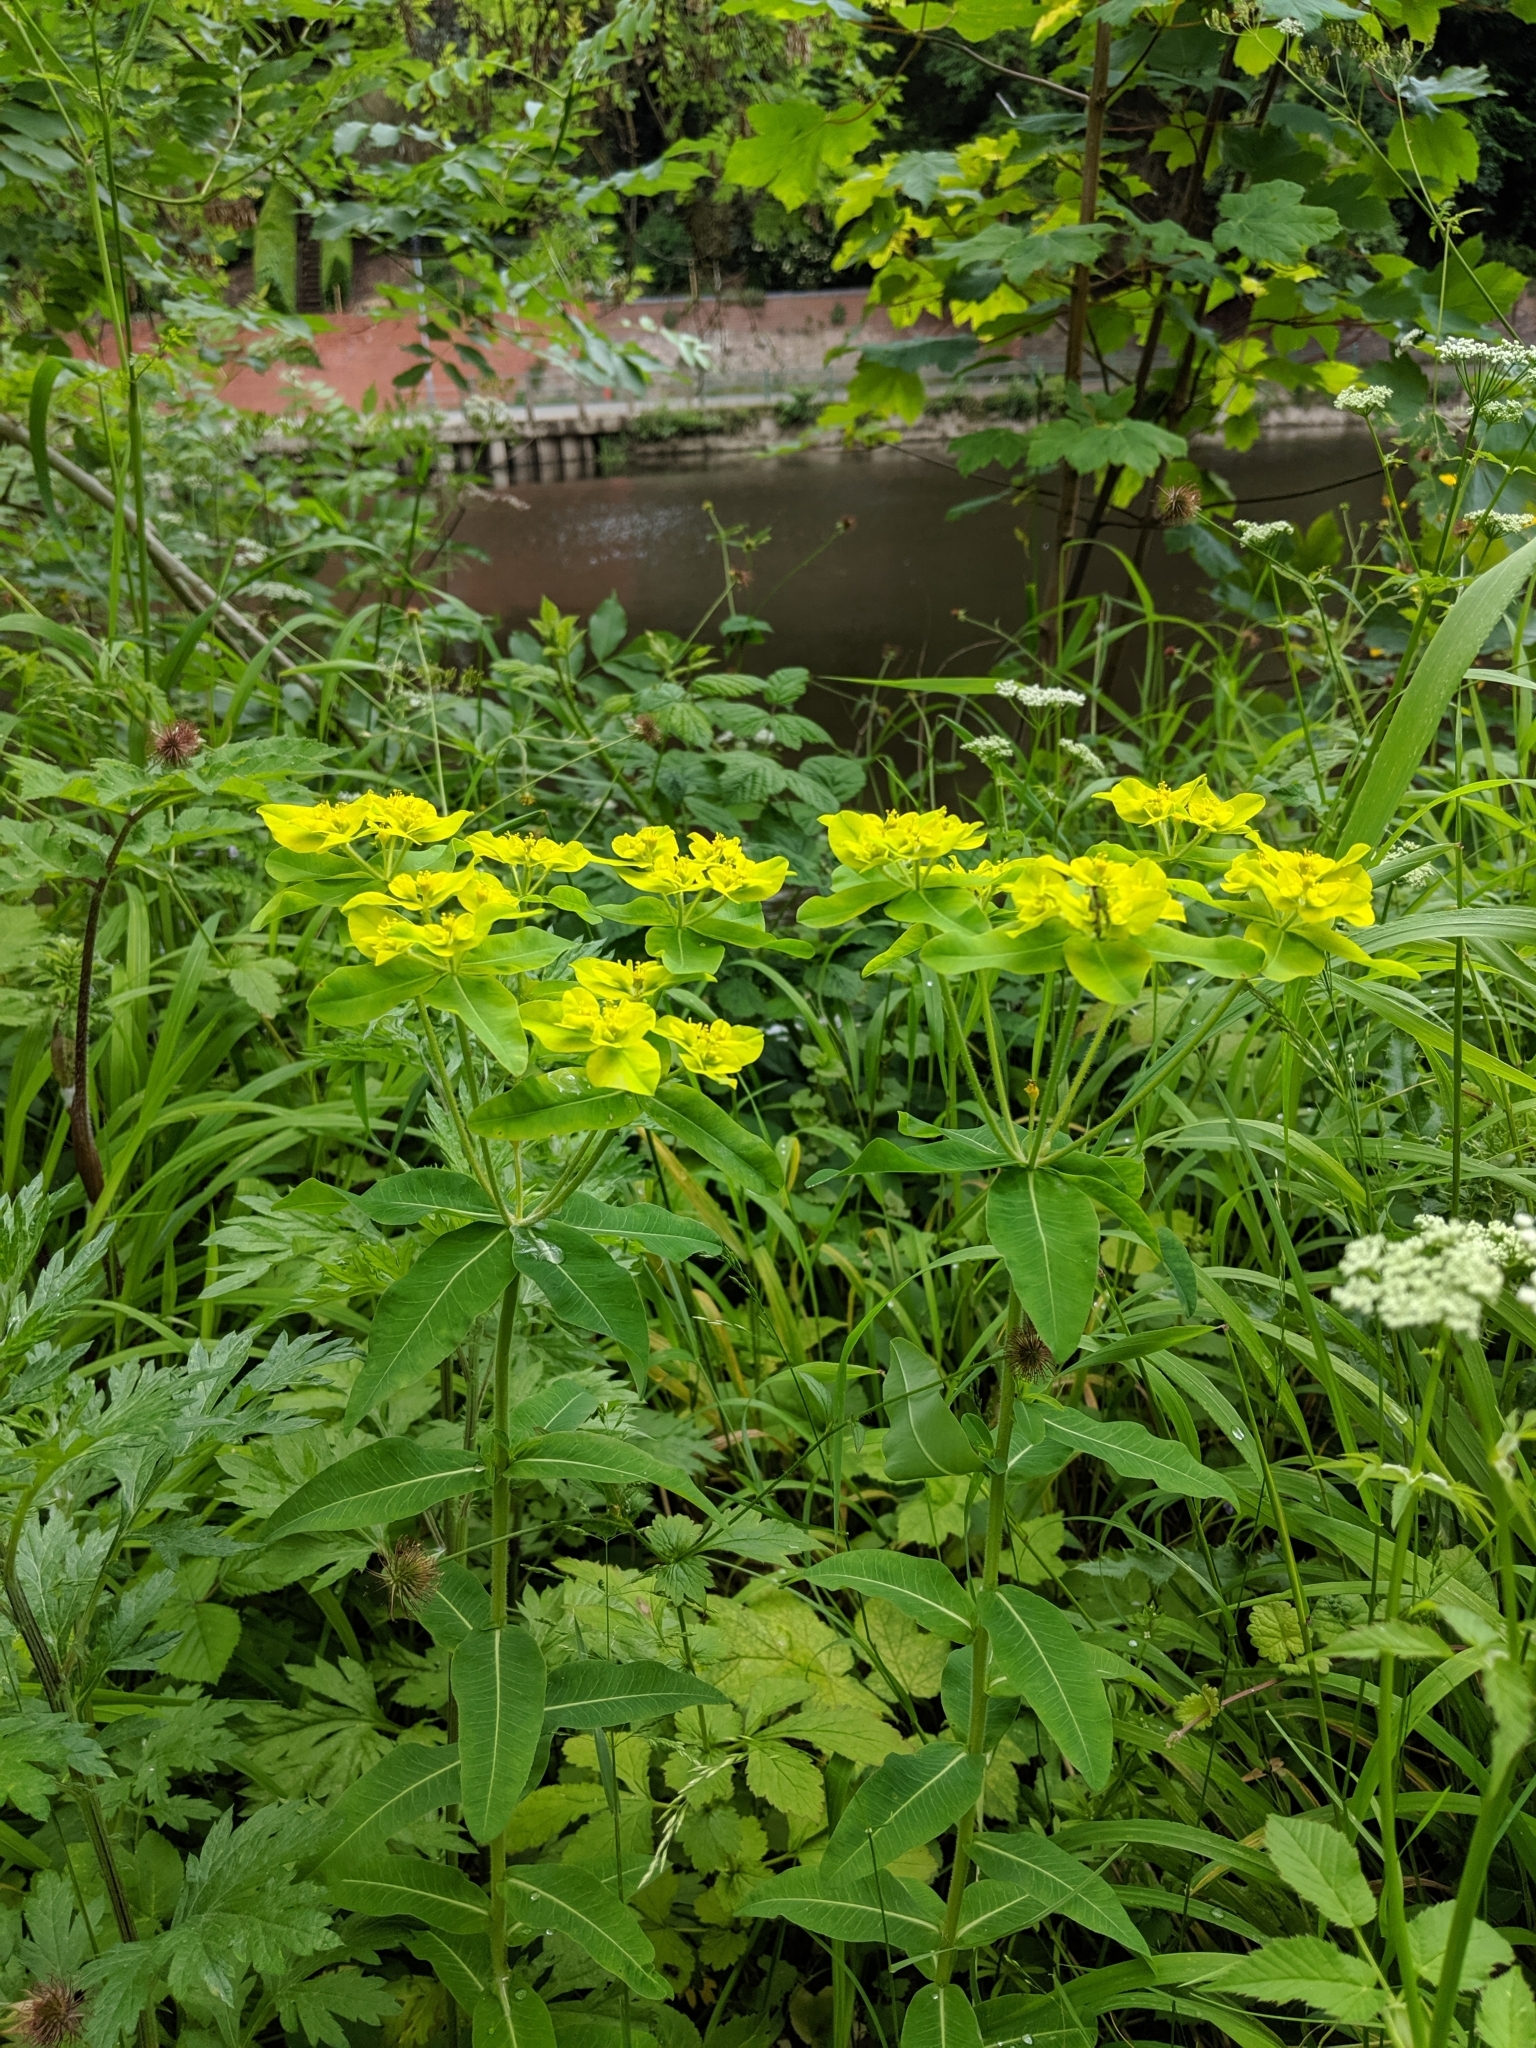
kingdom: Plantae
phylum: Tracheophyta
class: Magnoliopsida
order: Malpighiales
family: Euphorbiaceae
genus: Euphorbia
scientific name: Euphorbia oblongata
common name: Balkan spurge
